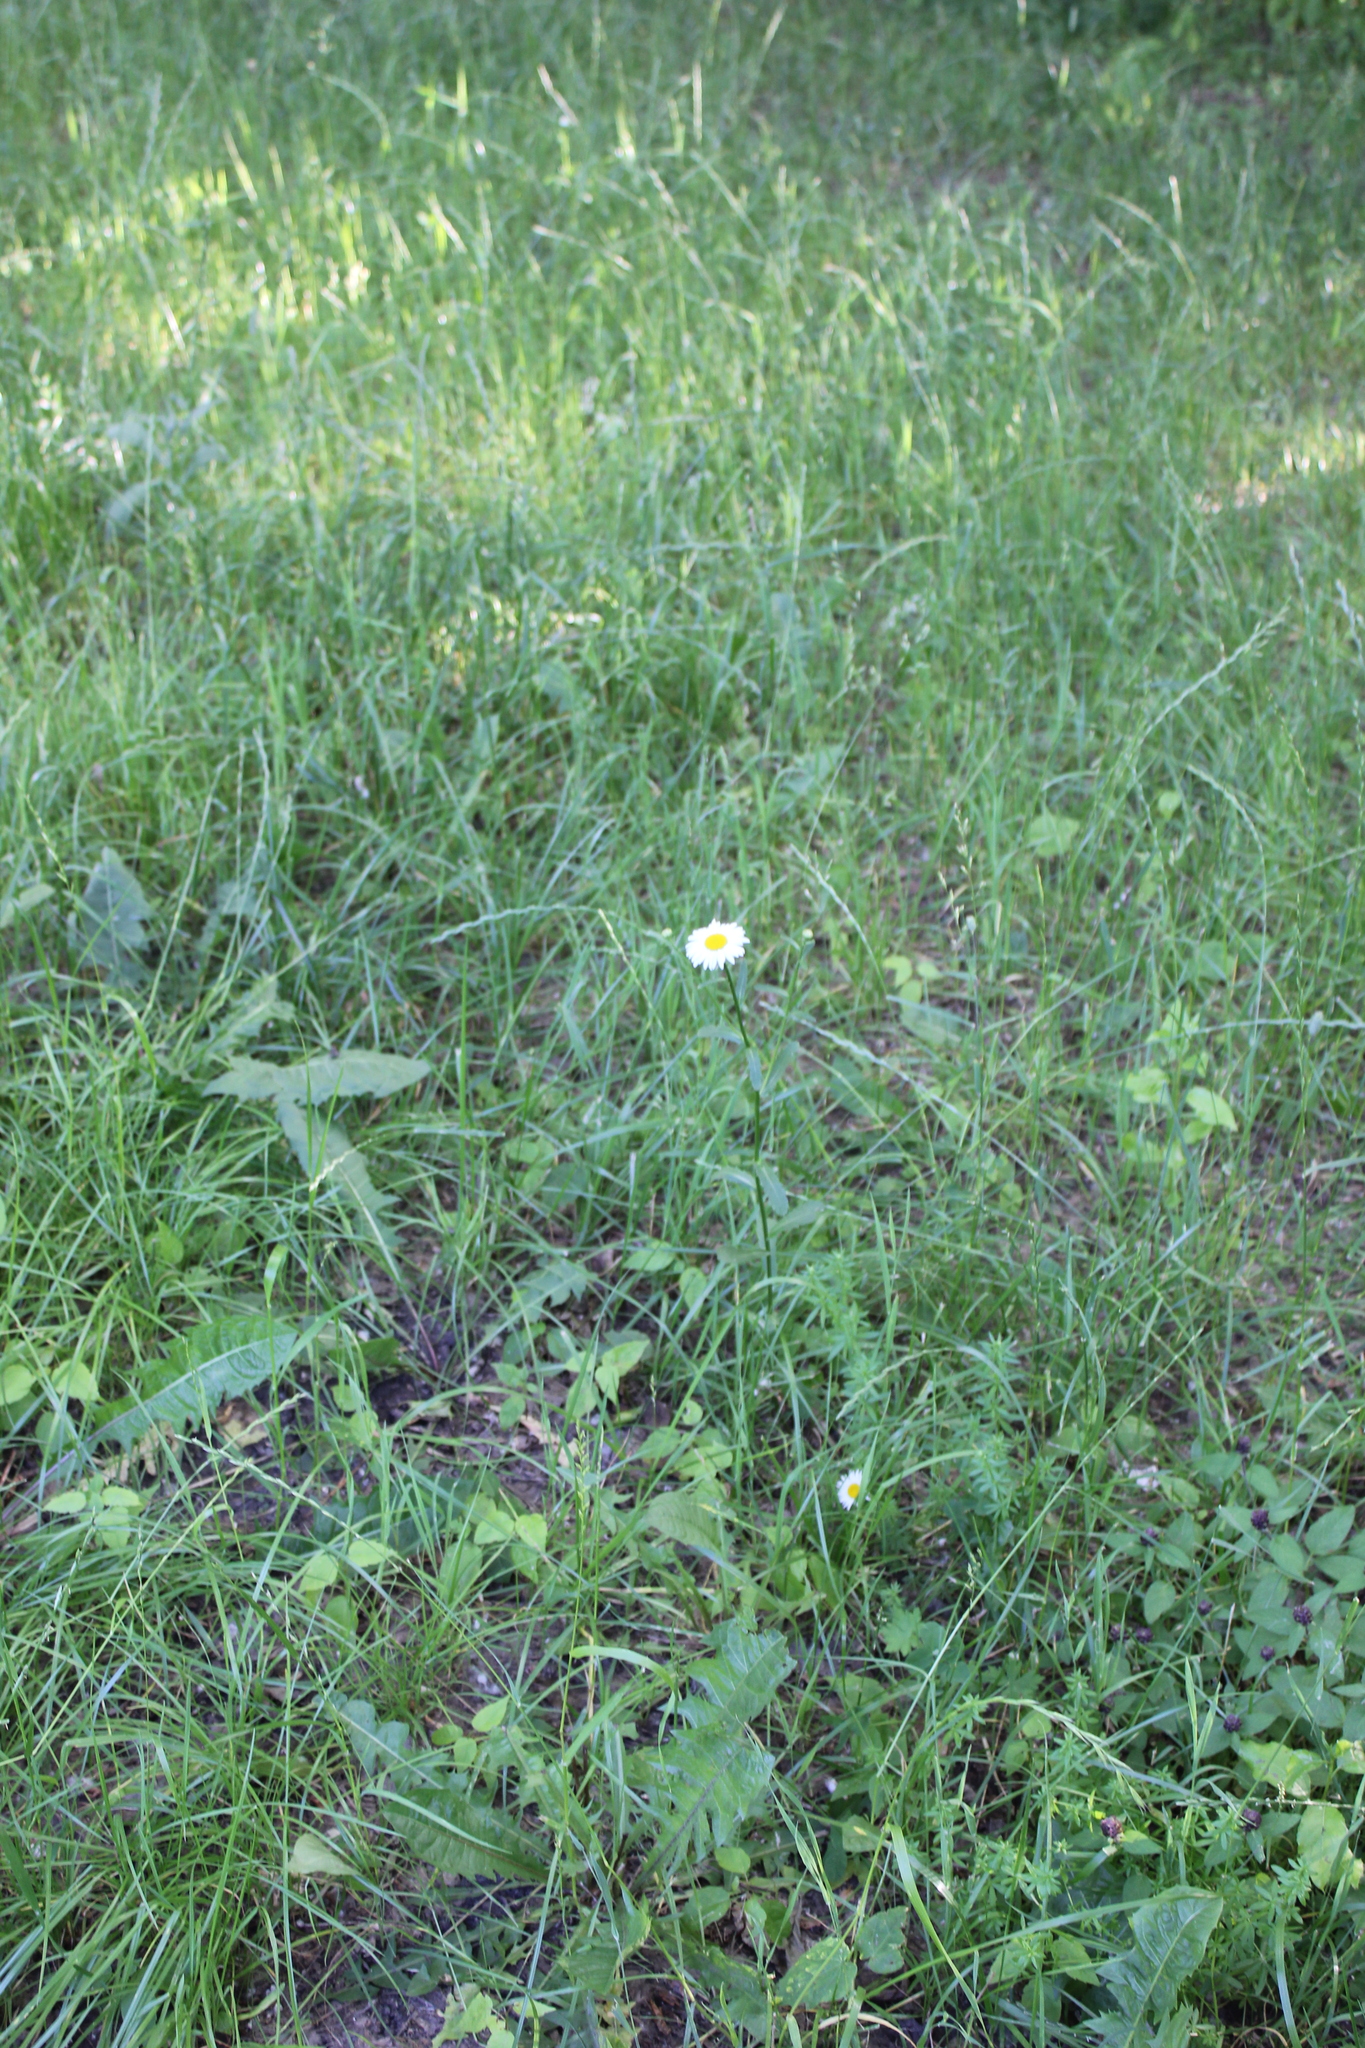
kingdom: Plantae
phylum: Tracheophyta
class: Magnoliopsida
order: Asterales
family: Asteraceae
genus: Leucanthemum
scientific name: Leucanthemum vulgare
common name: Oxeye daisy
